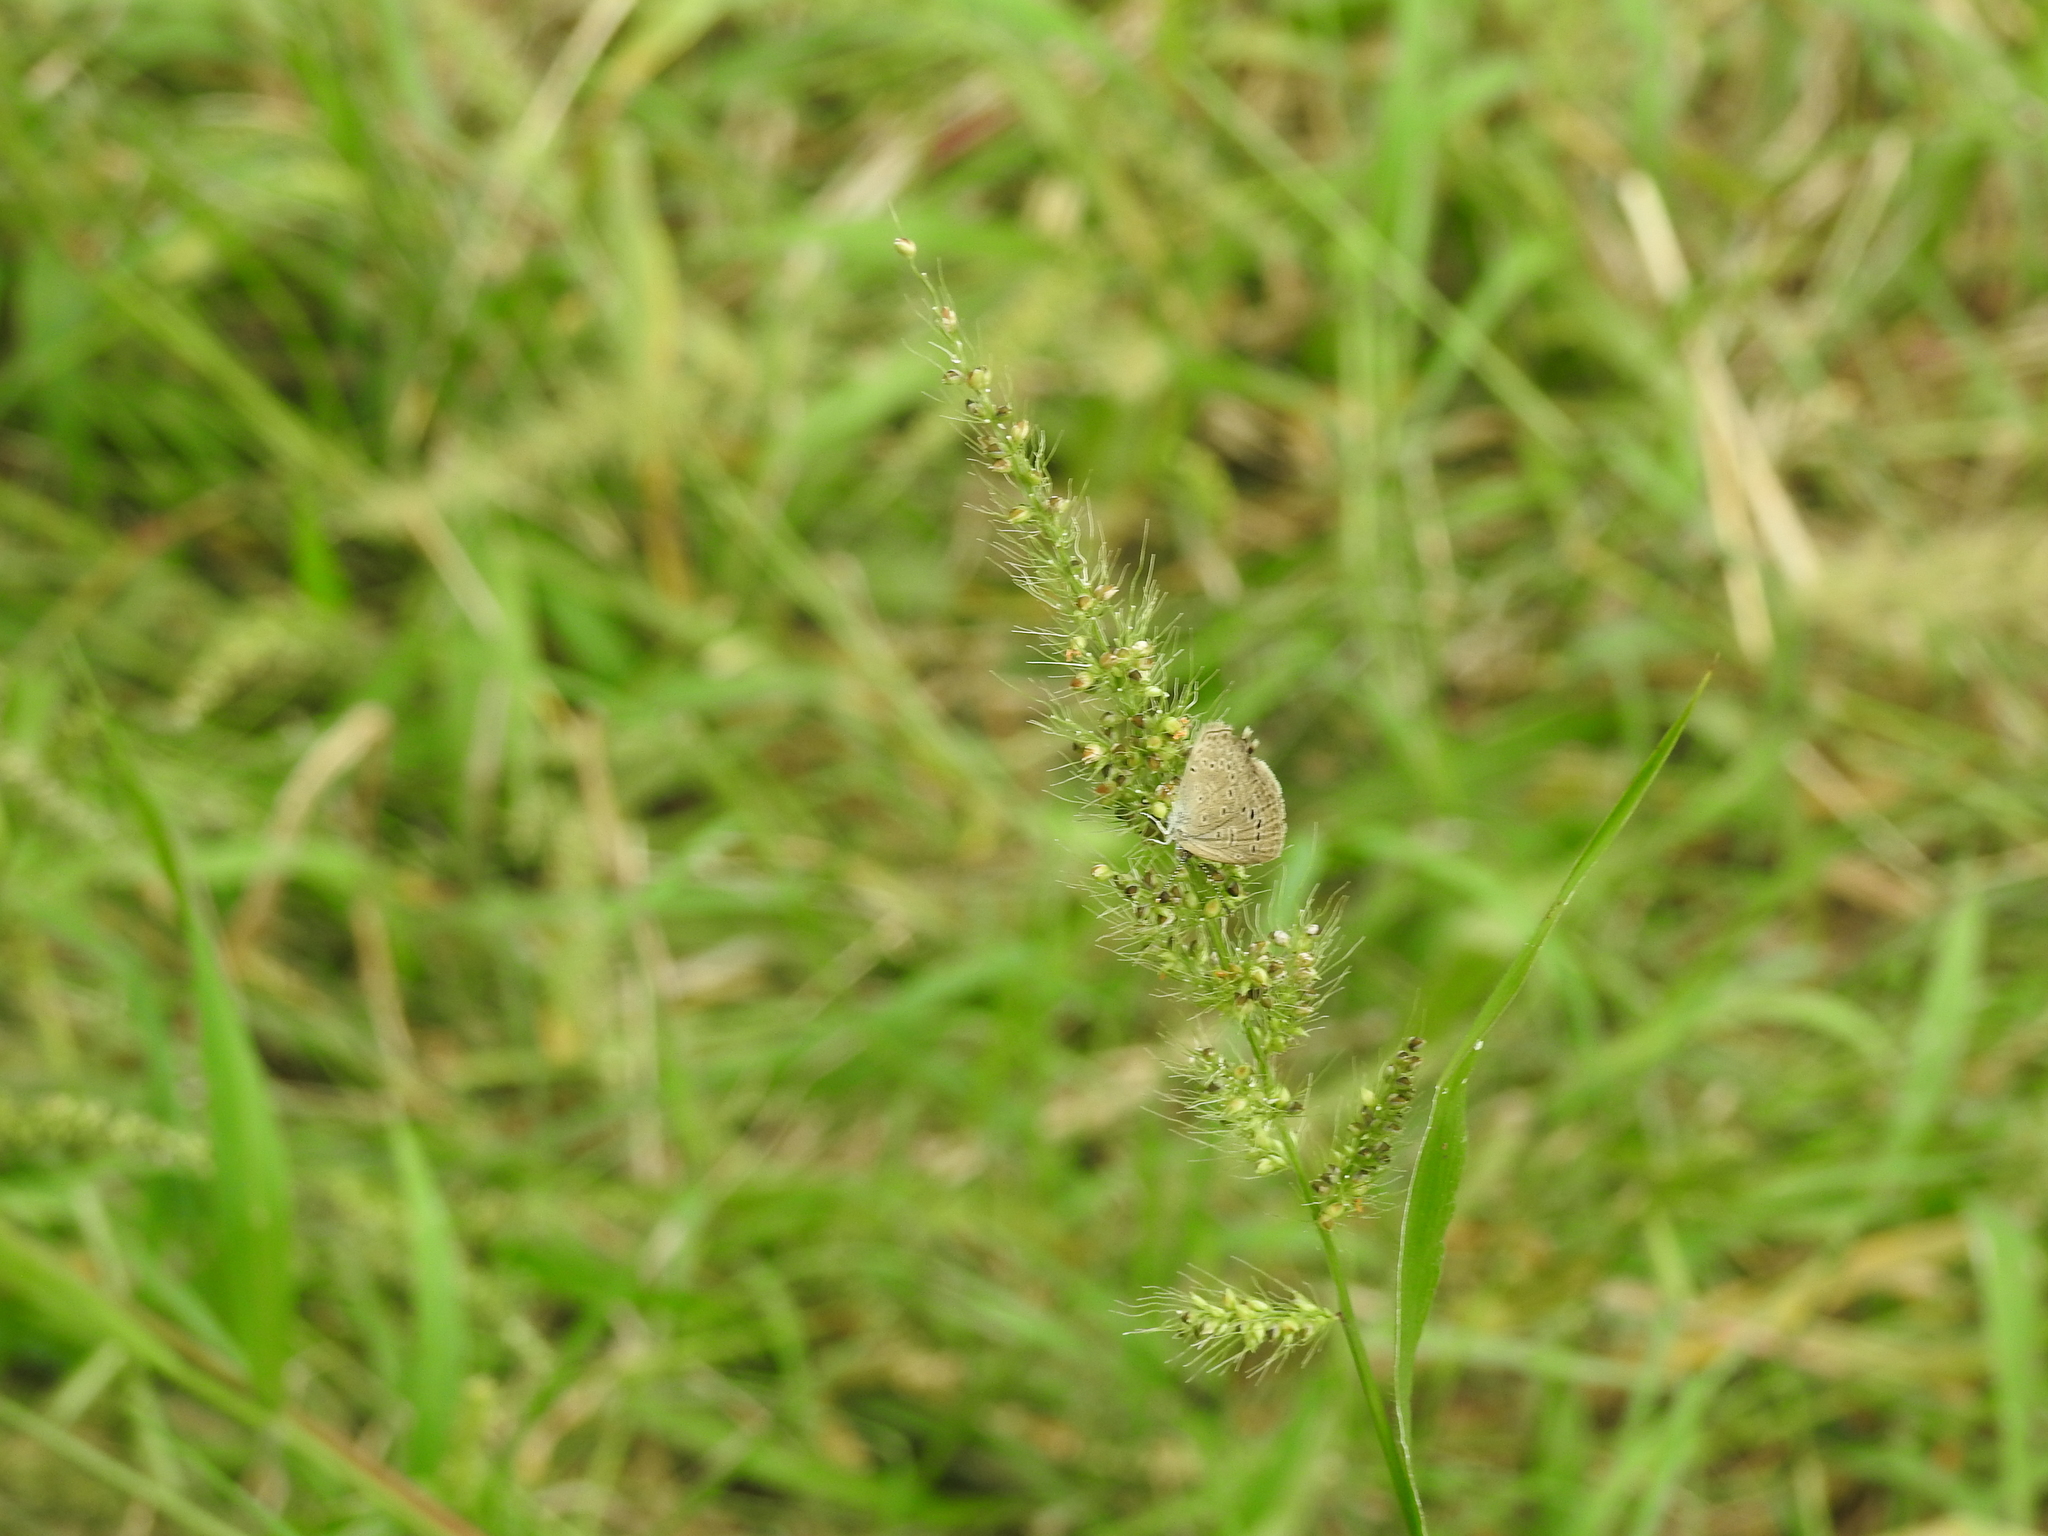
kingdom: Animalia
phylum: Arthropoda
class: Insecta
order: Lepidoptera
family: Lycaenidae
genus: Zizeeria
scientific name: Zizeeria karsandra
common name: Dark grass blue
